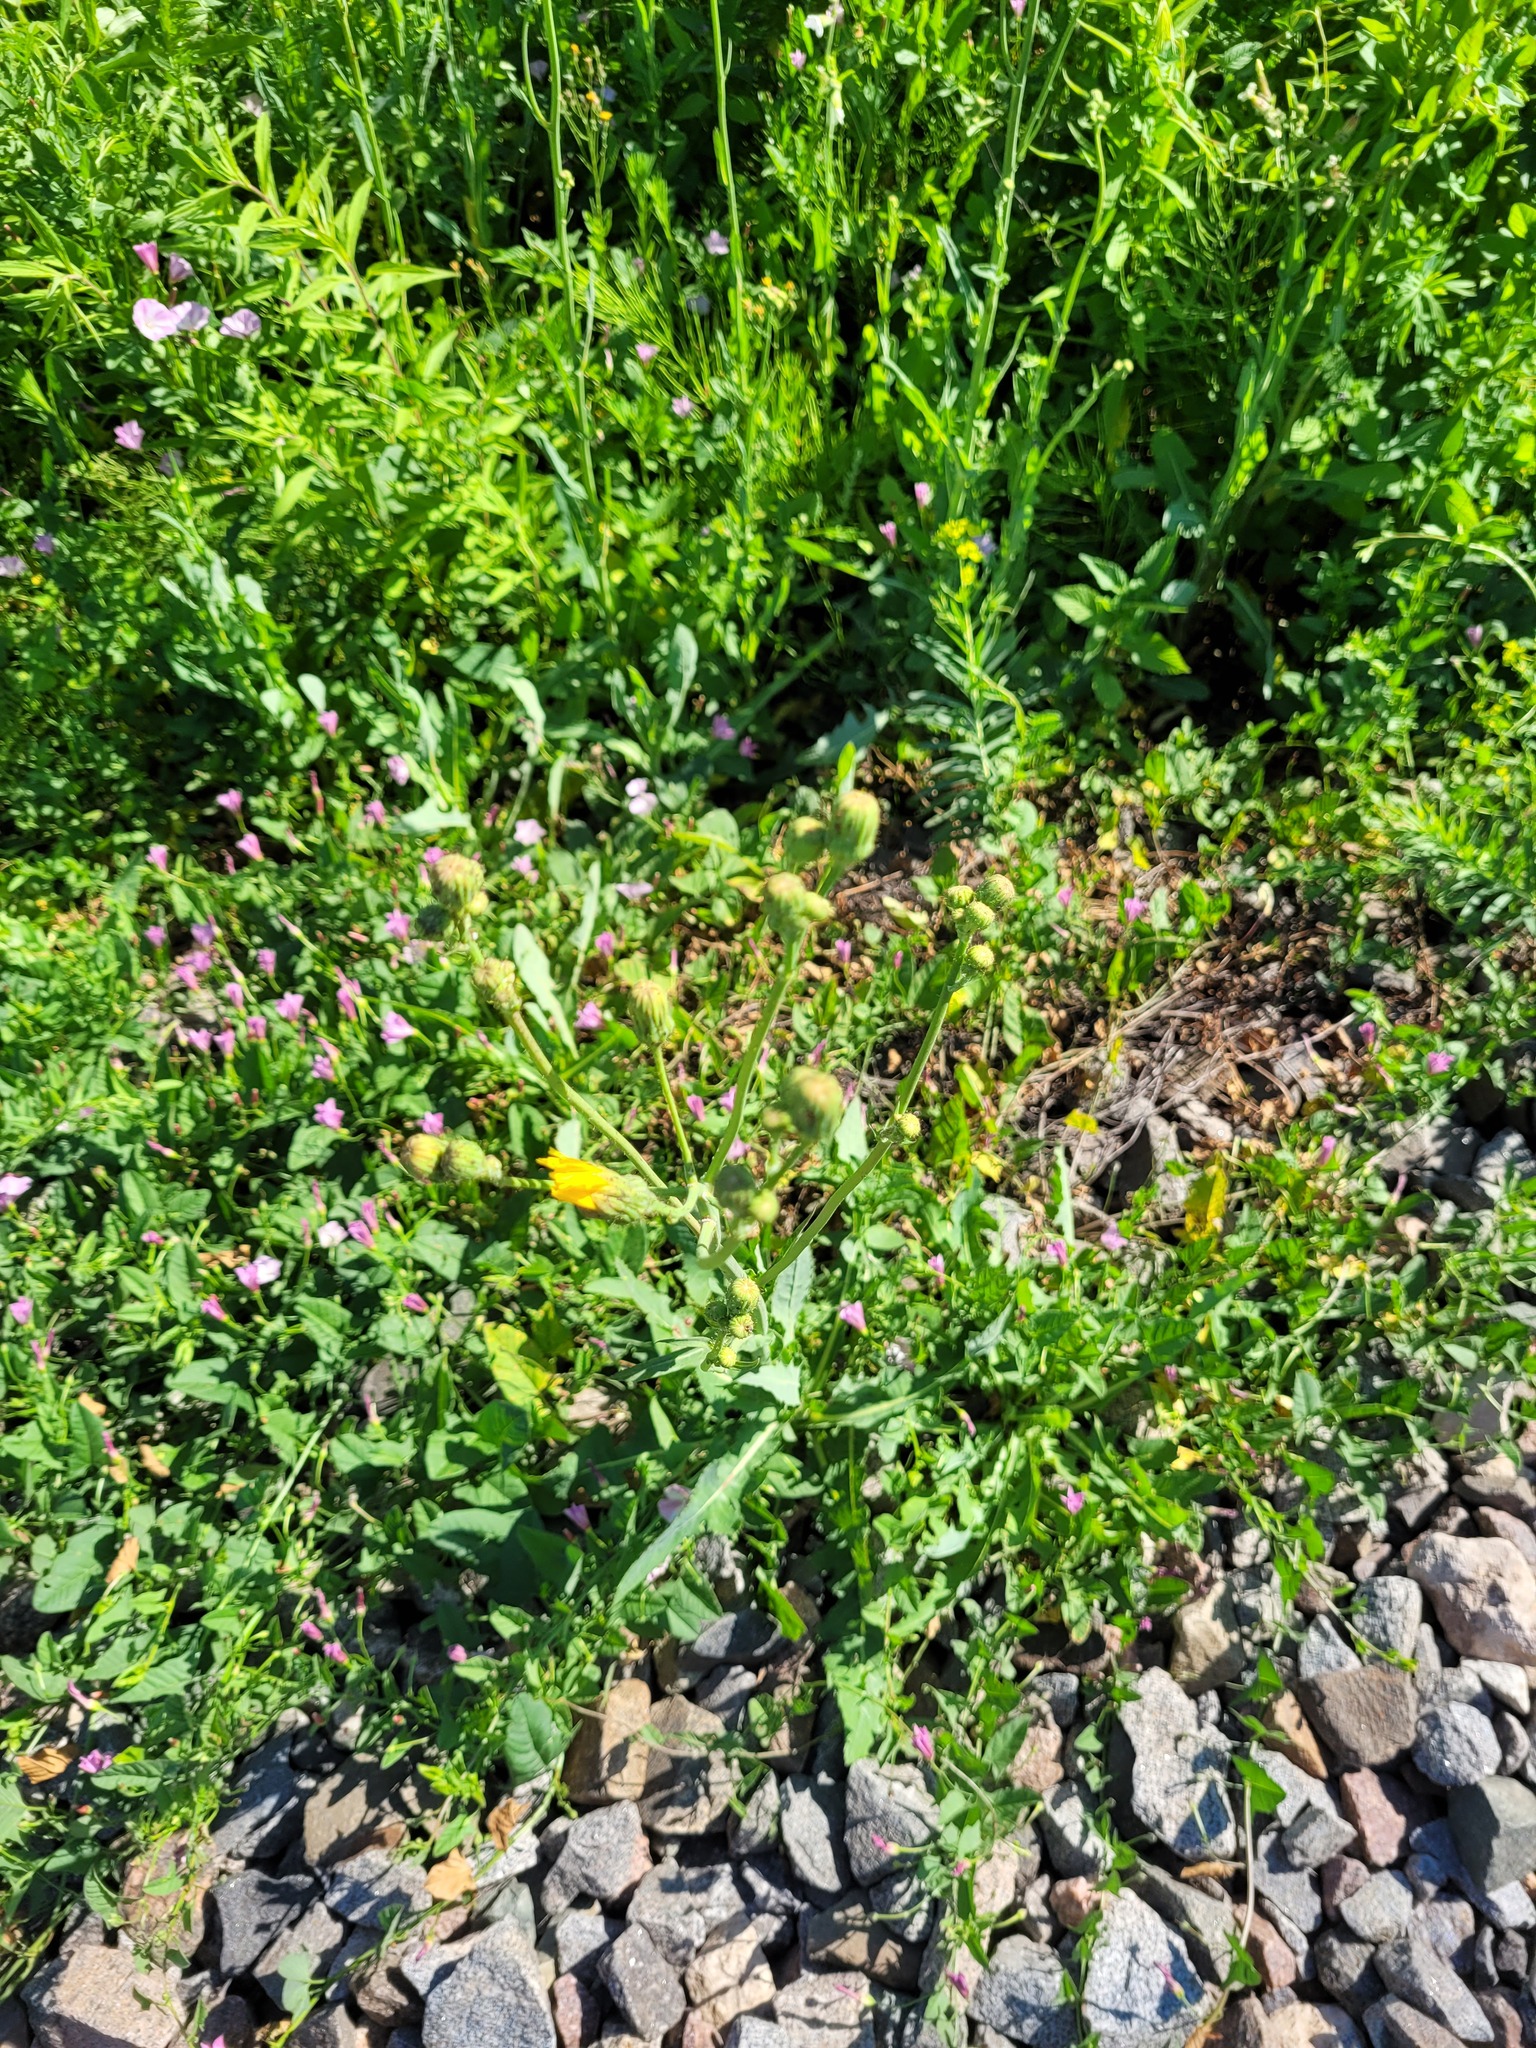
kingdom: Plantae
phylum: Tracheophyta
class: Magnoliopsida
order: Asterales
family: Asteraceae
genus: Sonchus
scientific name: Sonchus arvensis
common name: Perennial sow-thistle
